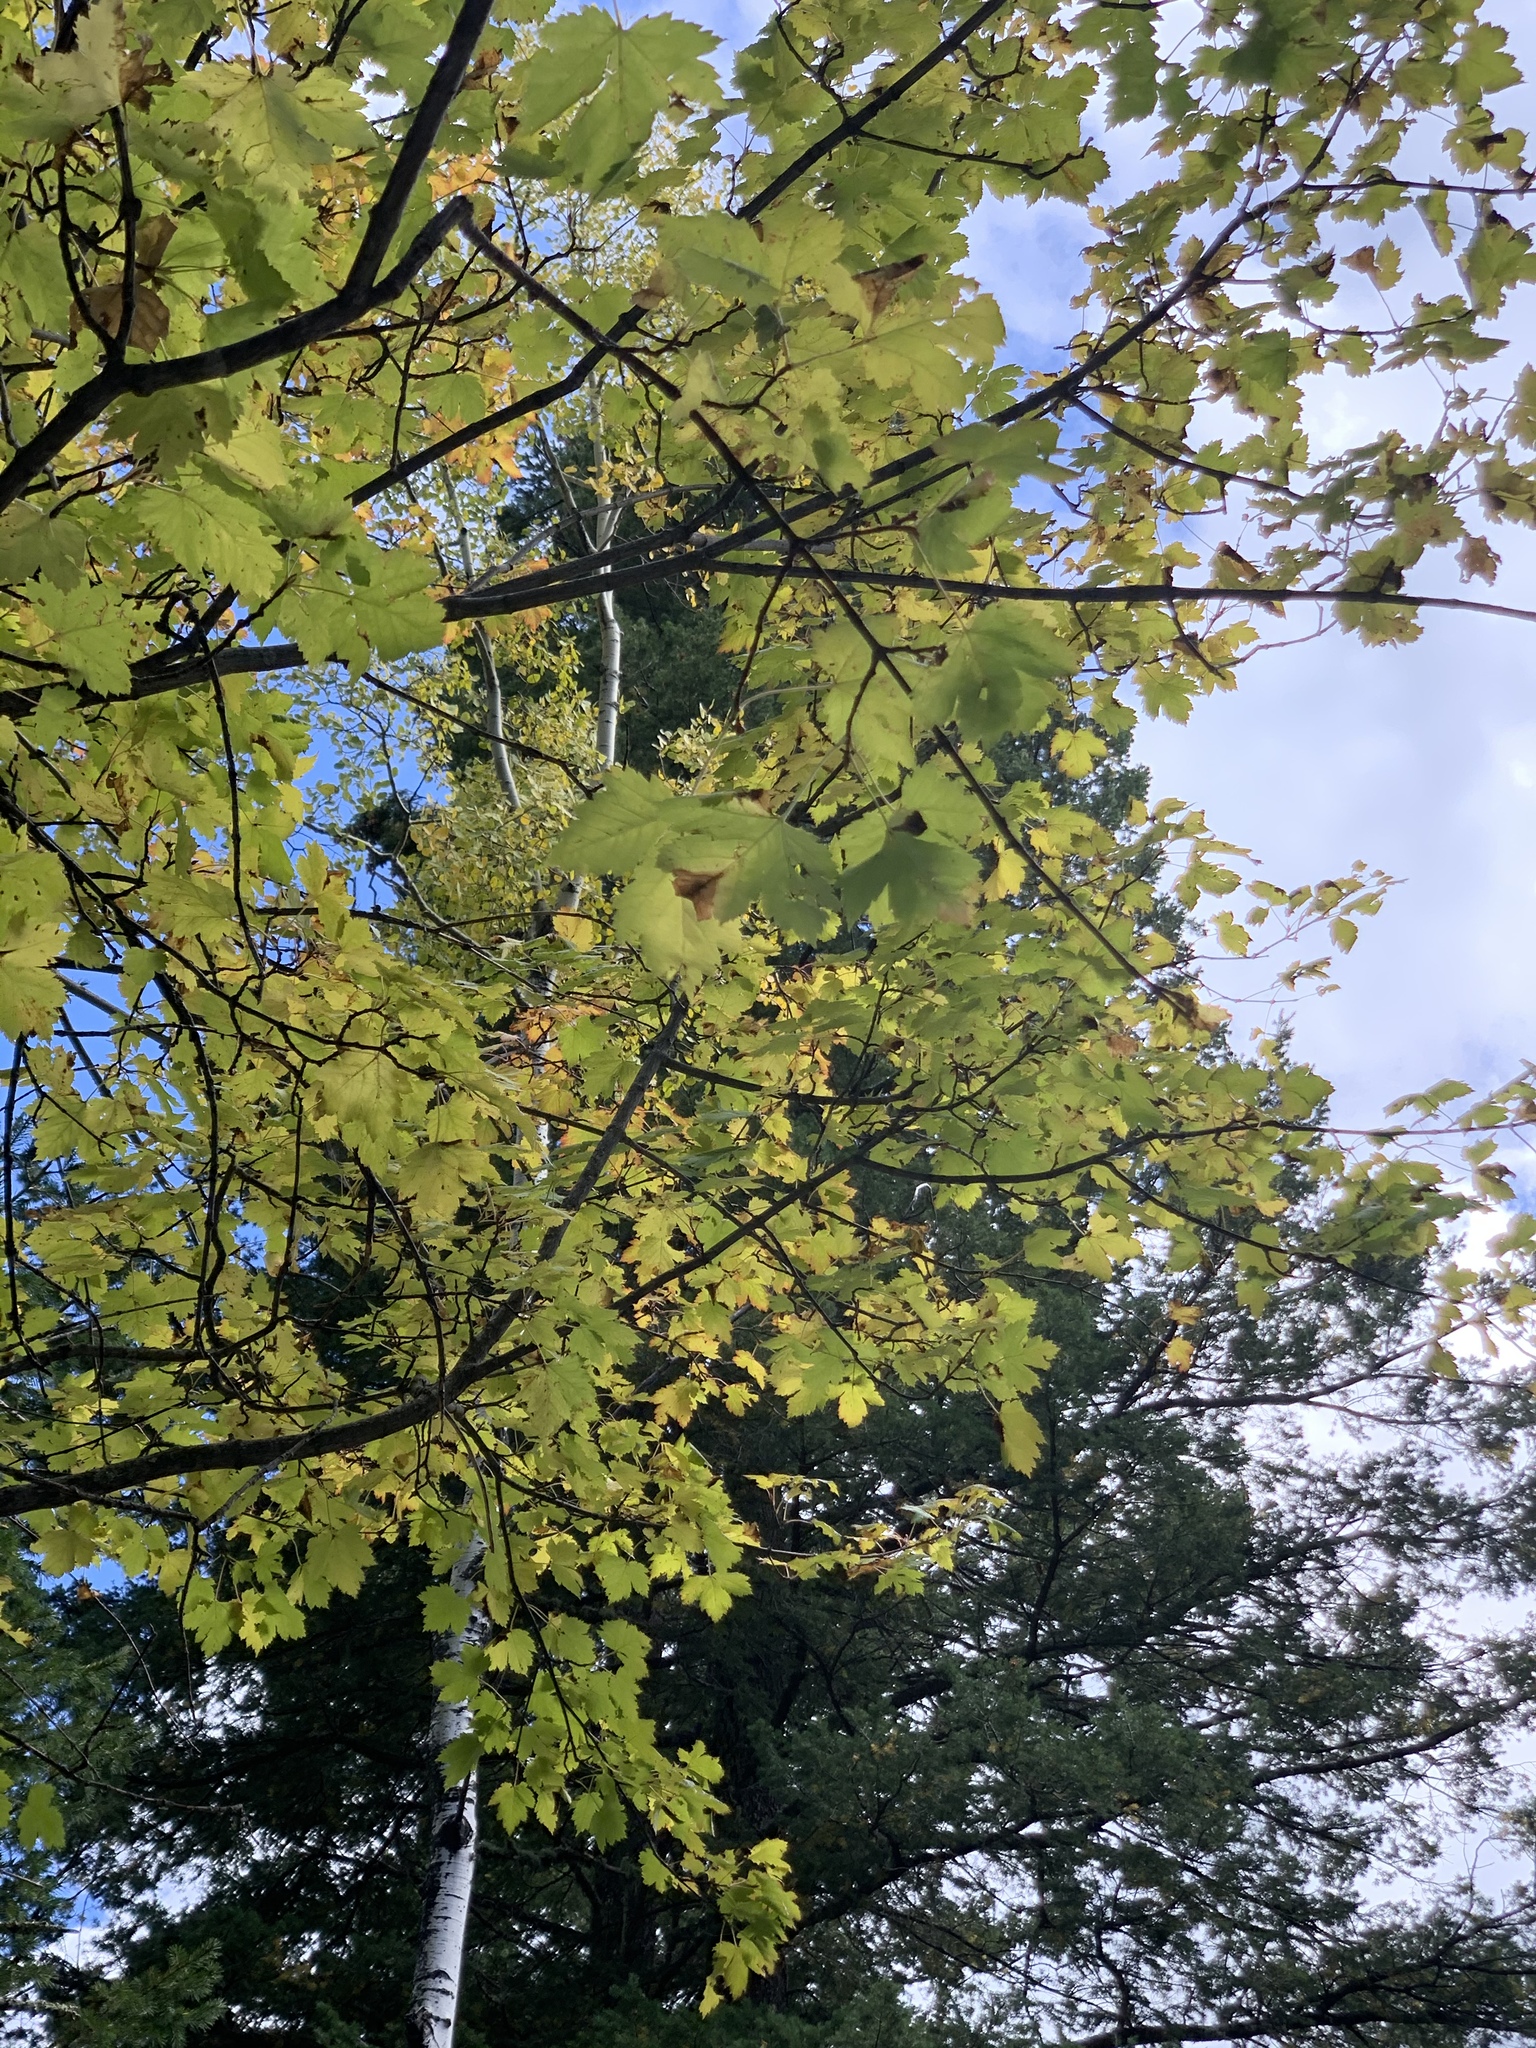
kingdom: Plantae
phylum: Tracheophyta
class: Magnoliopsida
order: Sapindales
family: Sapindaceae
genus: Acer
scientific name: Acer glabrum
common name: Rocky mountain maple
